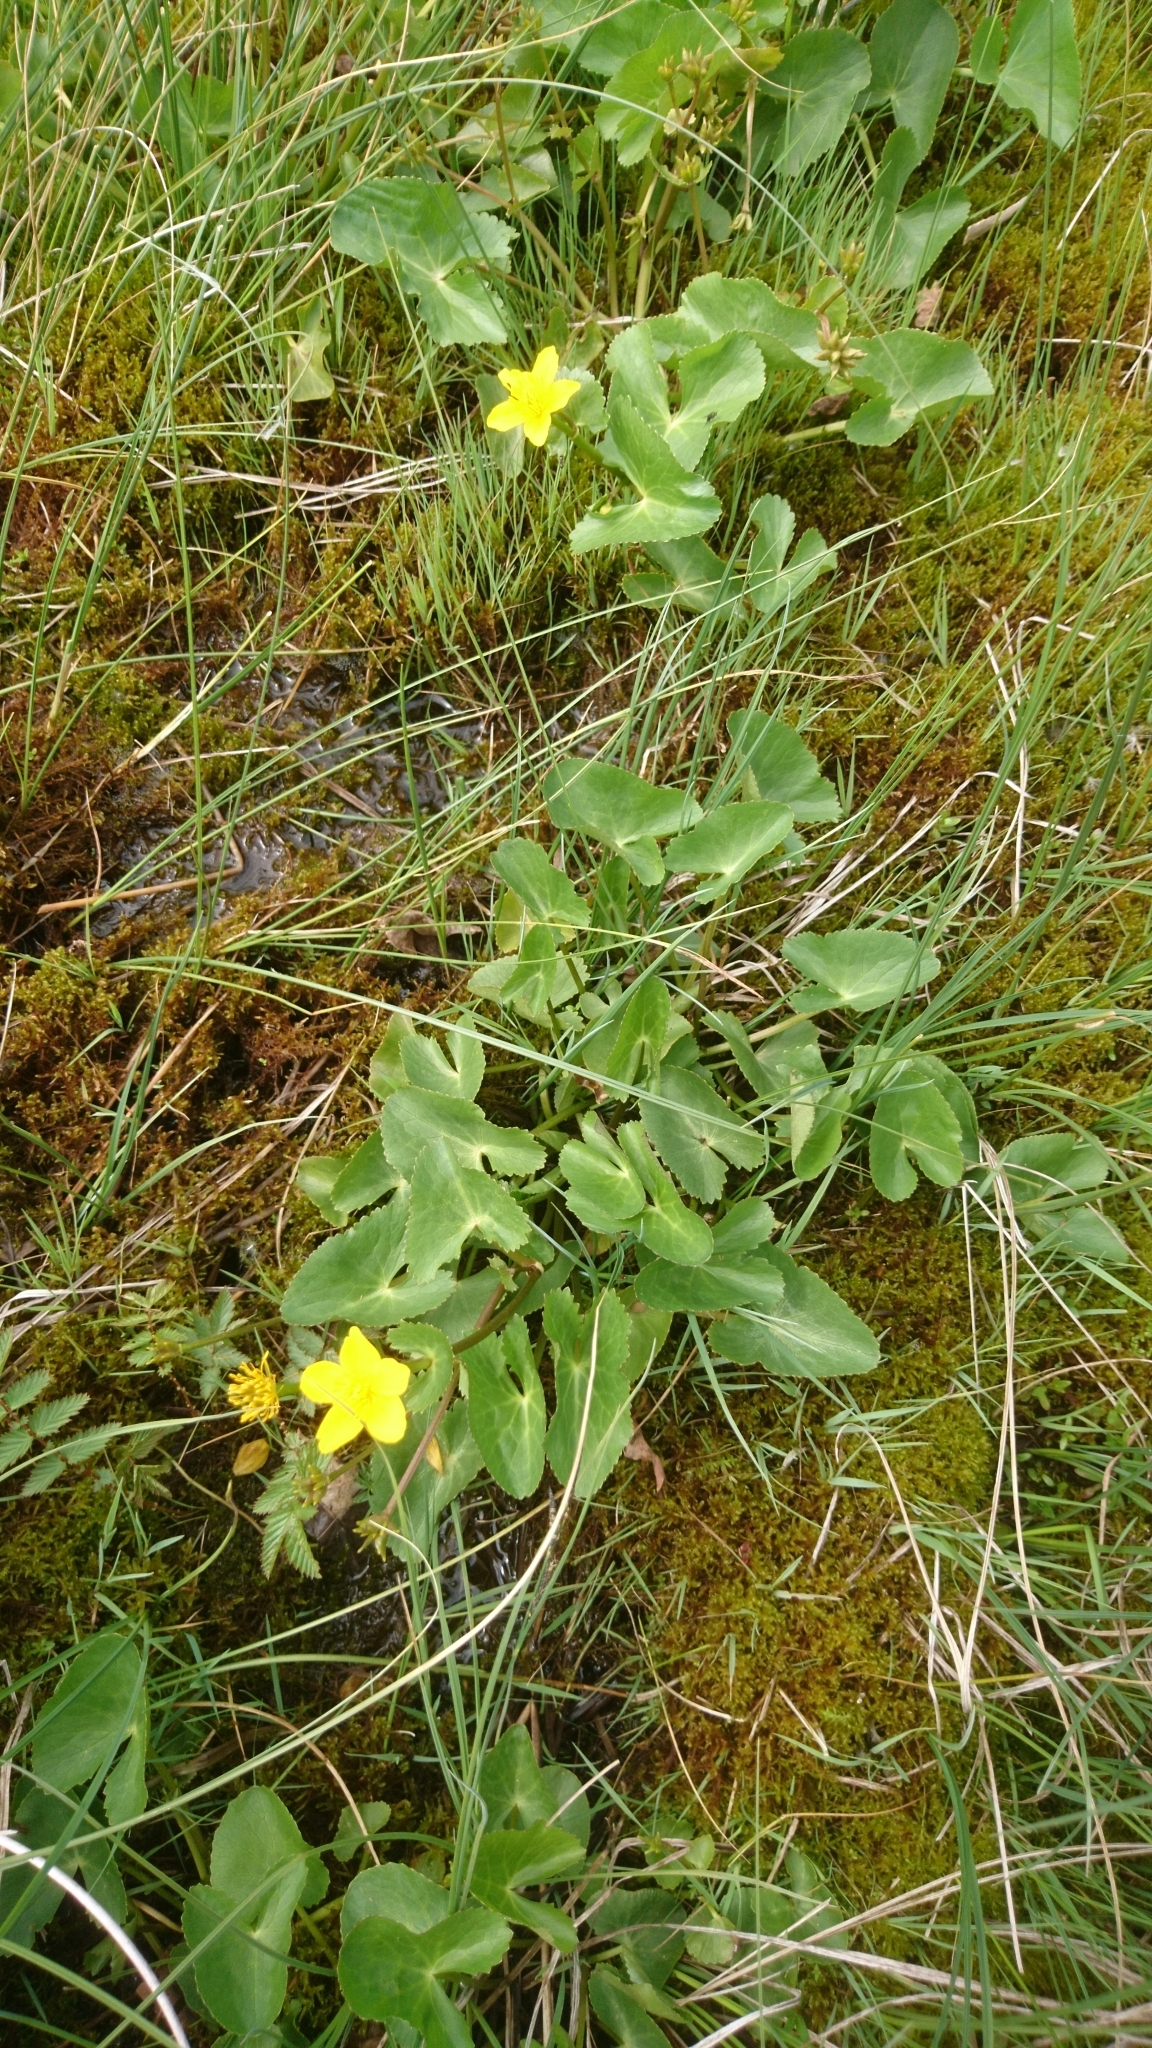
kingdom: Plantae
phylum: Tracheophyta
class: Magnoliopsida
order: Ranunculales
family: Ranunculaceae
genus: Caltha
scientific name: Caltha palustris
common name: Marsh marigold
